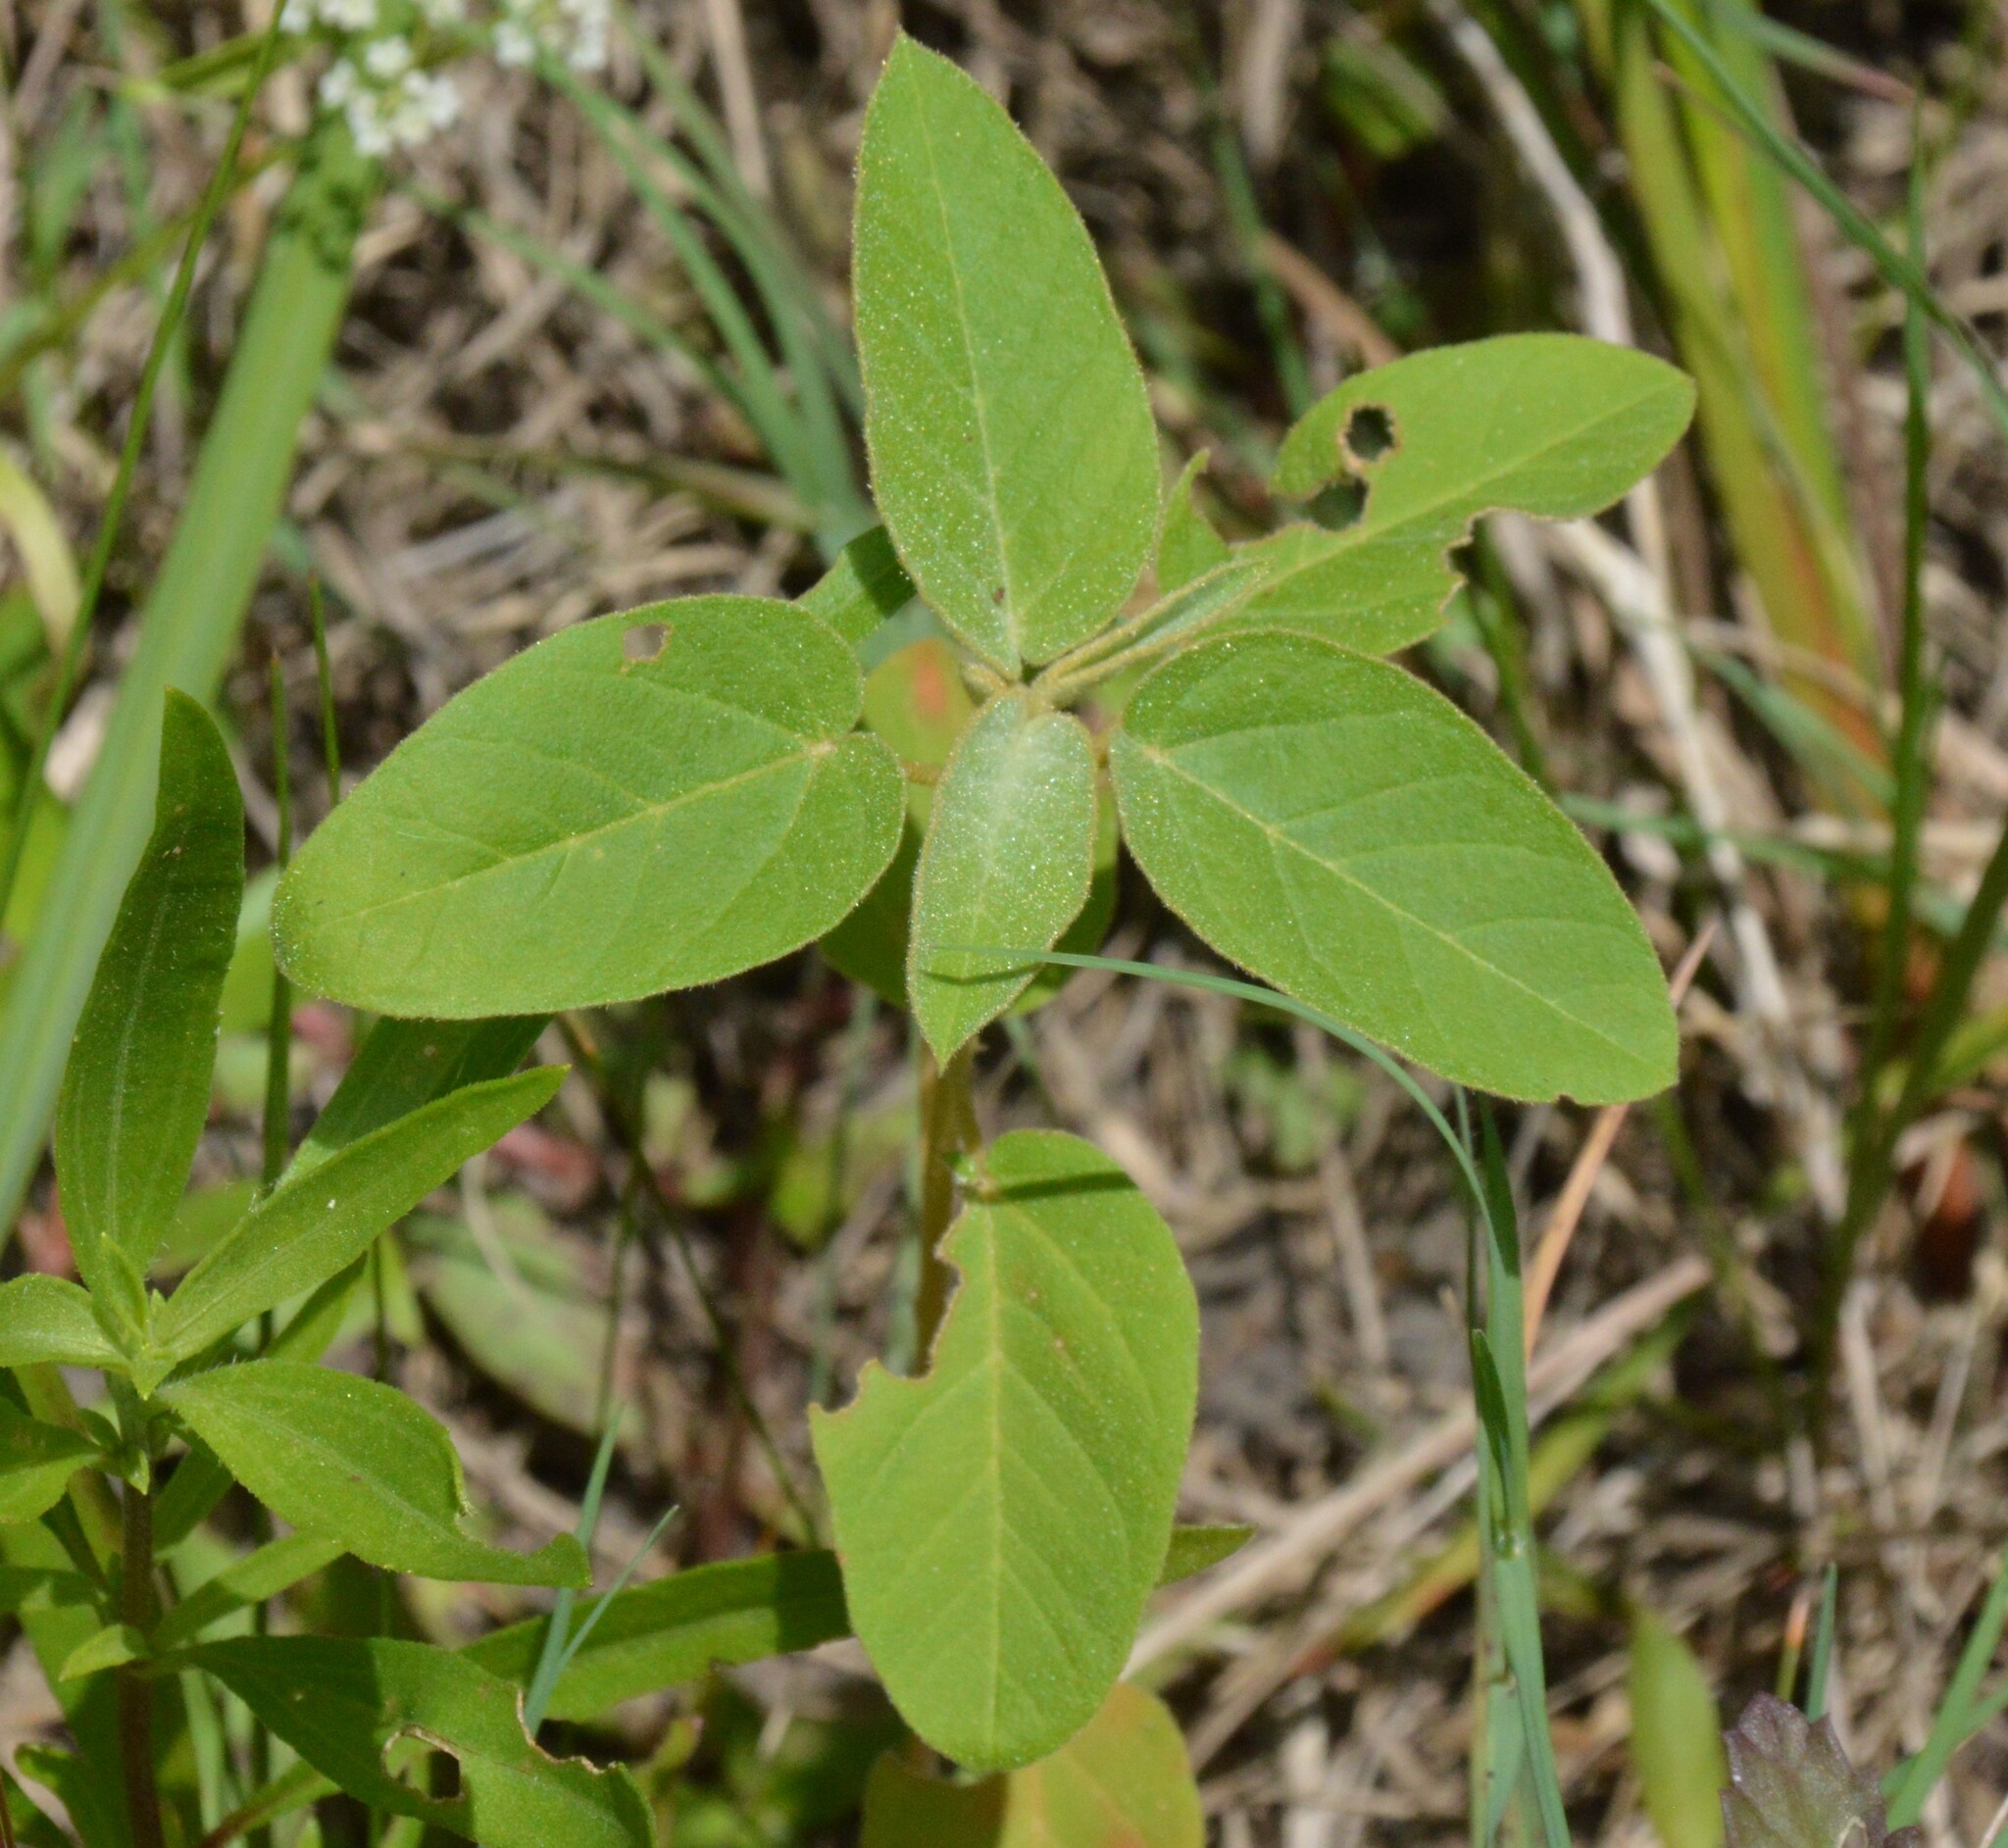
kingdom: Plantae
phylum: Tracheophyta
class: Magnoliopsida
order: Malpighiales
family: Euphorbiaceae
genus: Croton
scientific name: Croton lindheimeri
